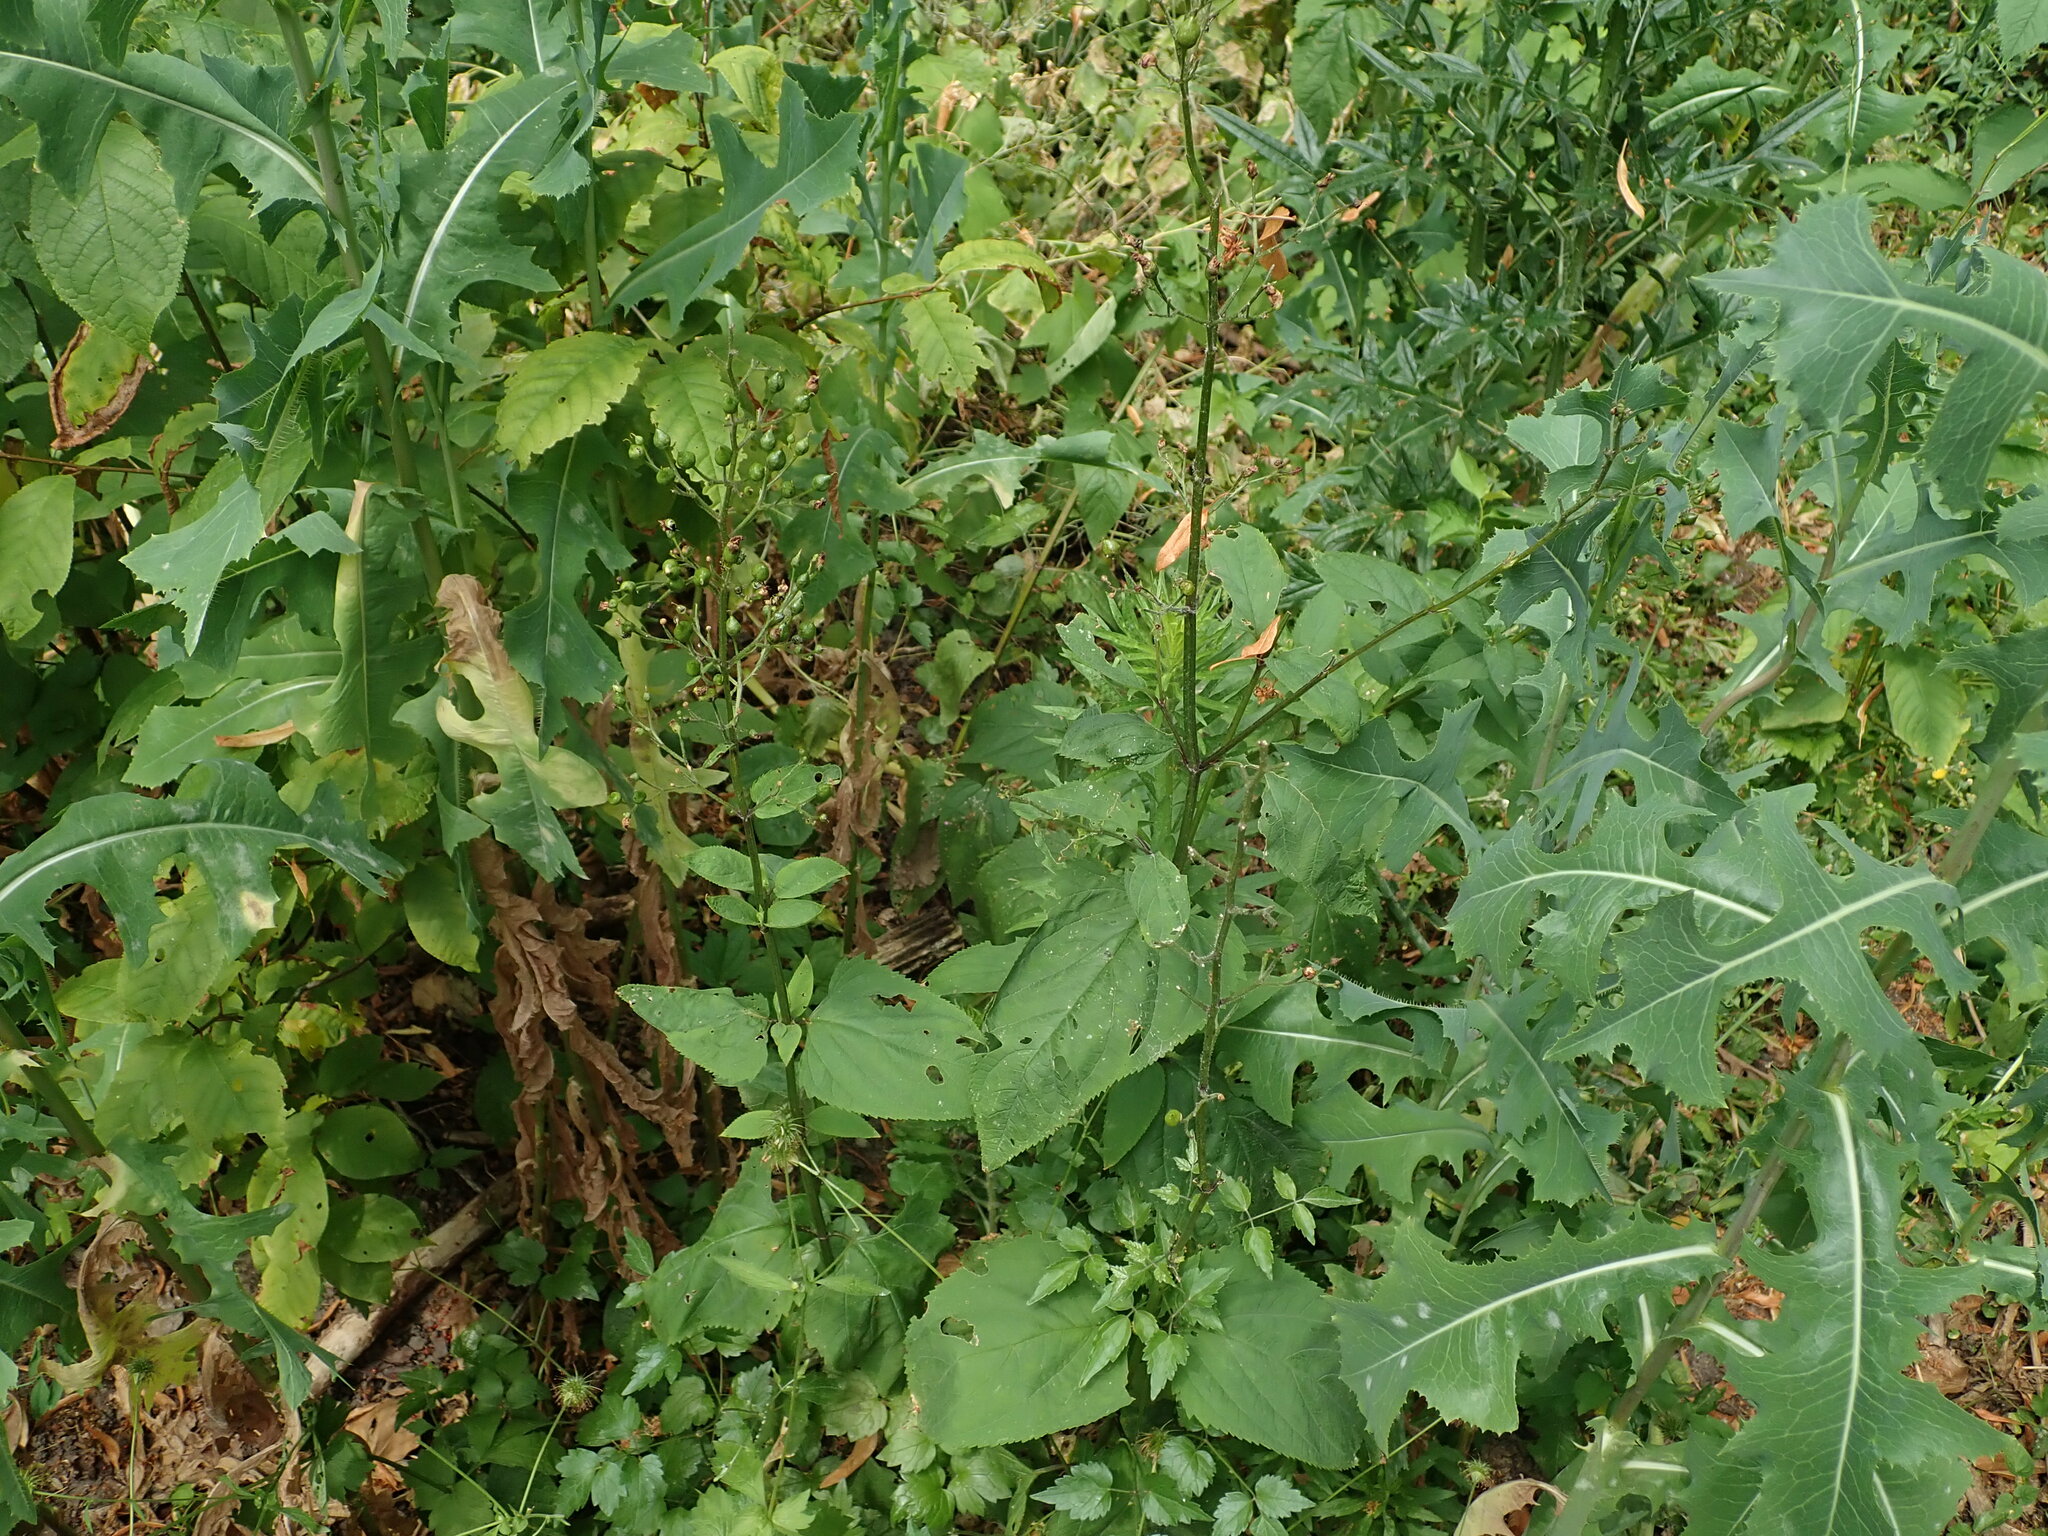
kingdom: Plantae
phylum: Tracheophyta
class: Magnoliopsida
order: Lamiales
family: Scrophulariaceae
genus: Scrophularia
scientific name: Scrophularia nodosa
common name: Common figwort
